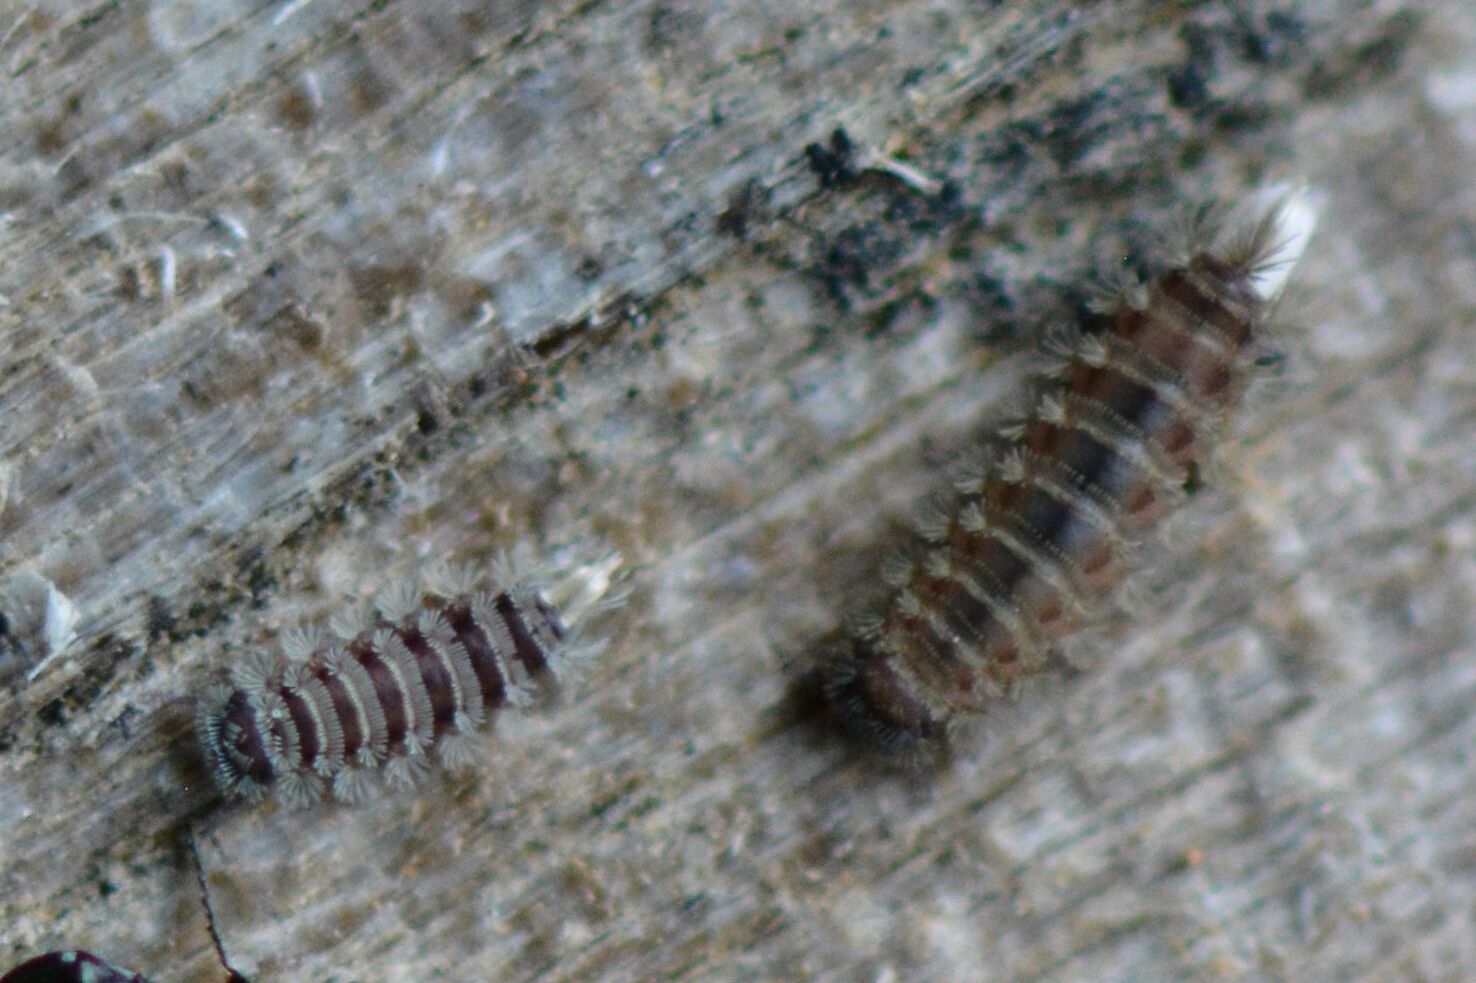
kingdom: Animalia
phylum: Arthropoda
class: Diplopoda
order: Polyxenida
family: Polyxenidae
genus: Polyxenus
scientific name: Polyxenus lagurus
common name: Bristly millipede
